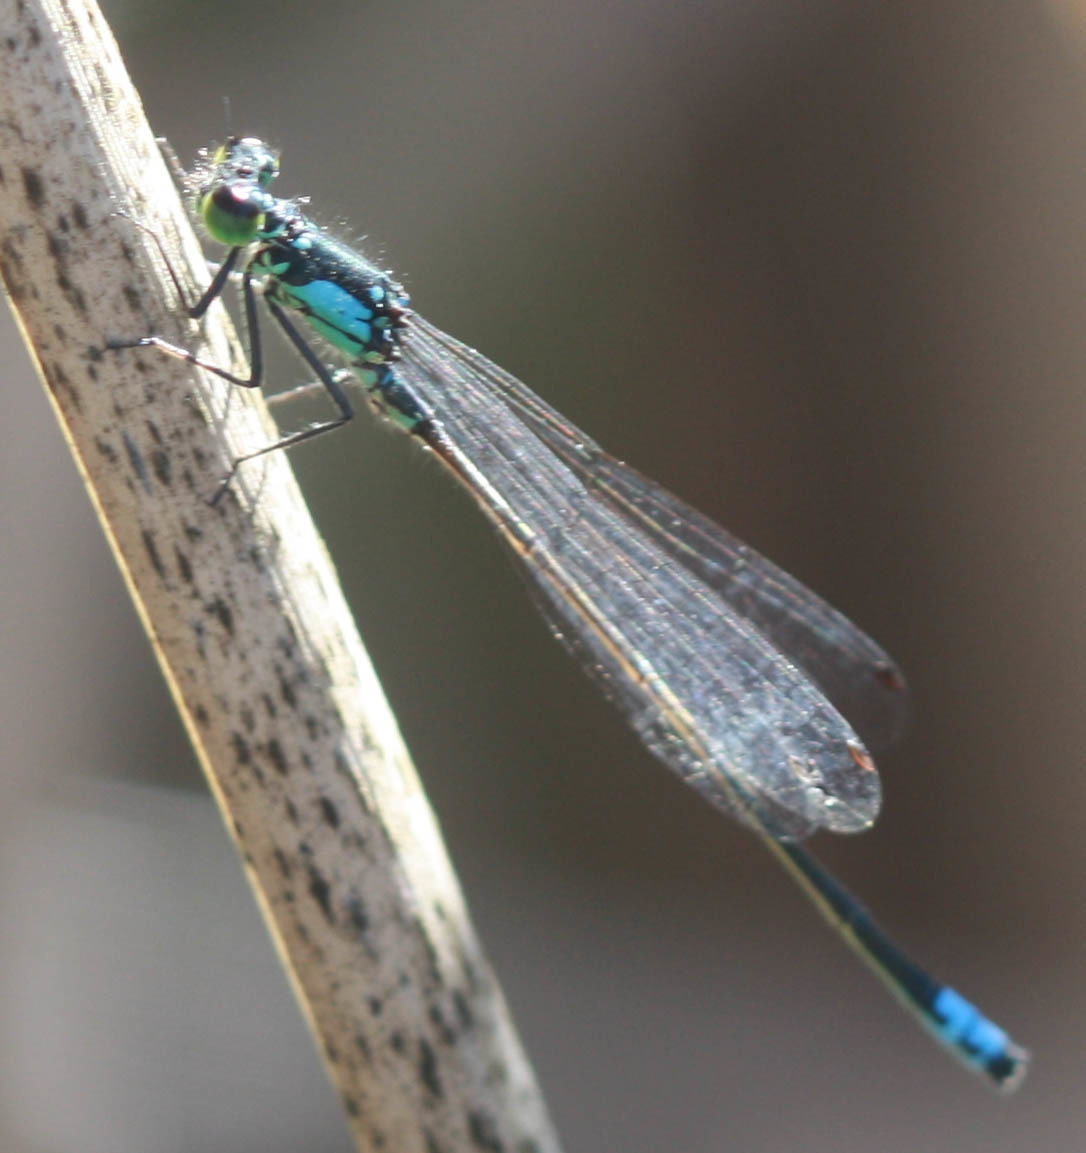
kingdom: Animalia
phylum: Arthropoda
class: Insecta
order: Odonata
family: Coenagrionidae
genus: Ischnura
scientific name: Ischnura cervula
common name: Pacific forktail
